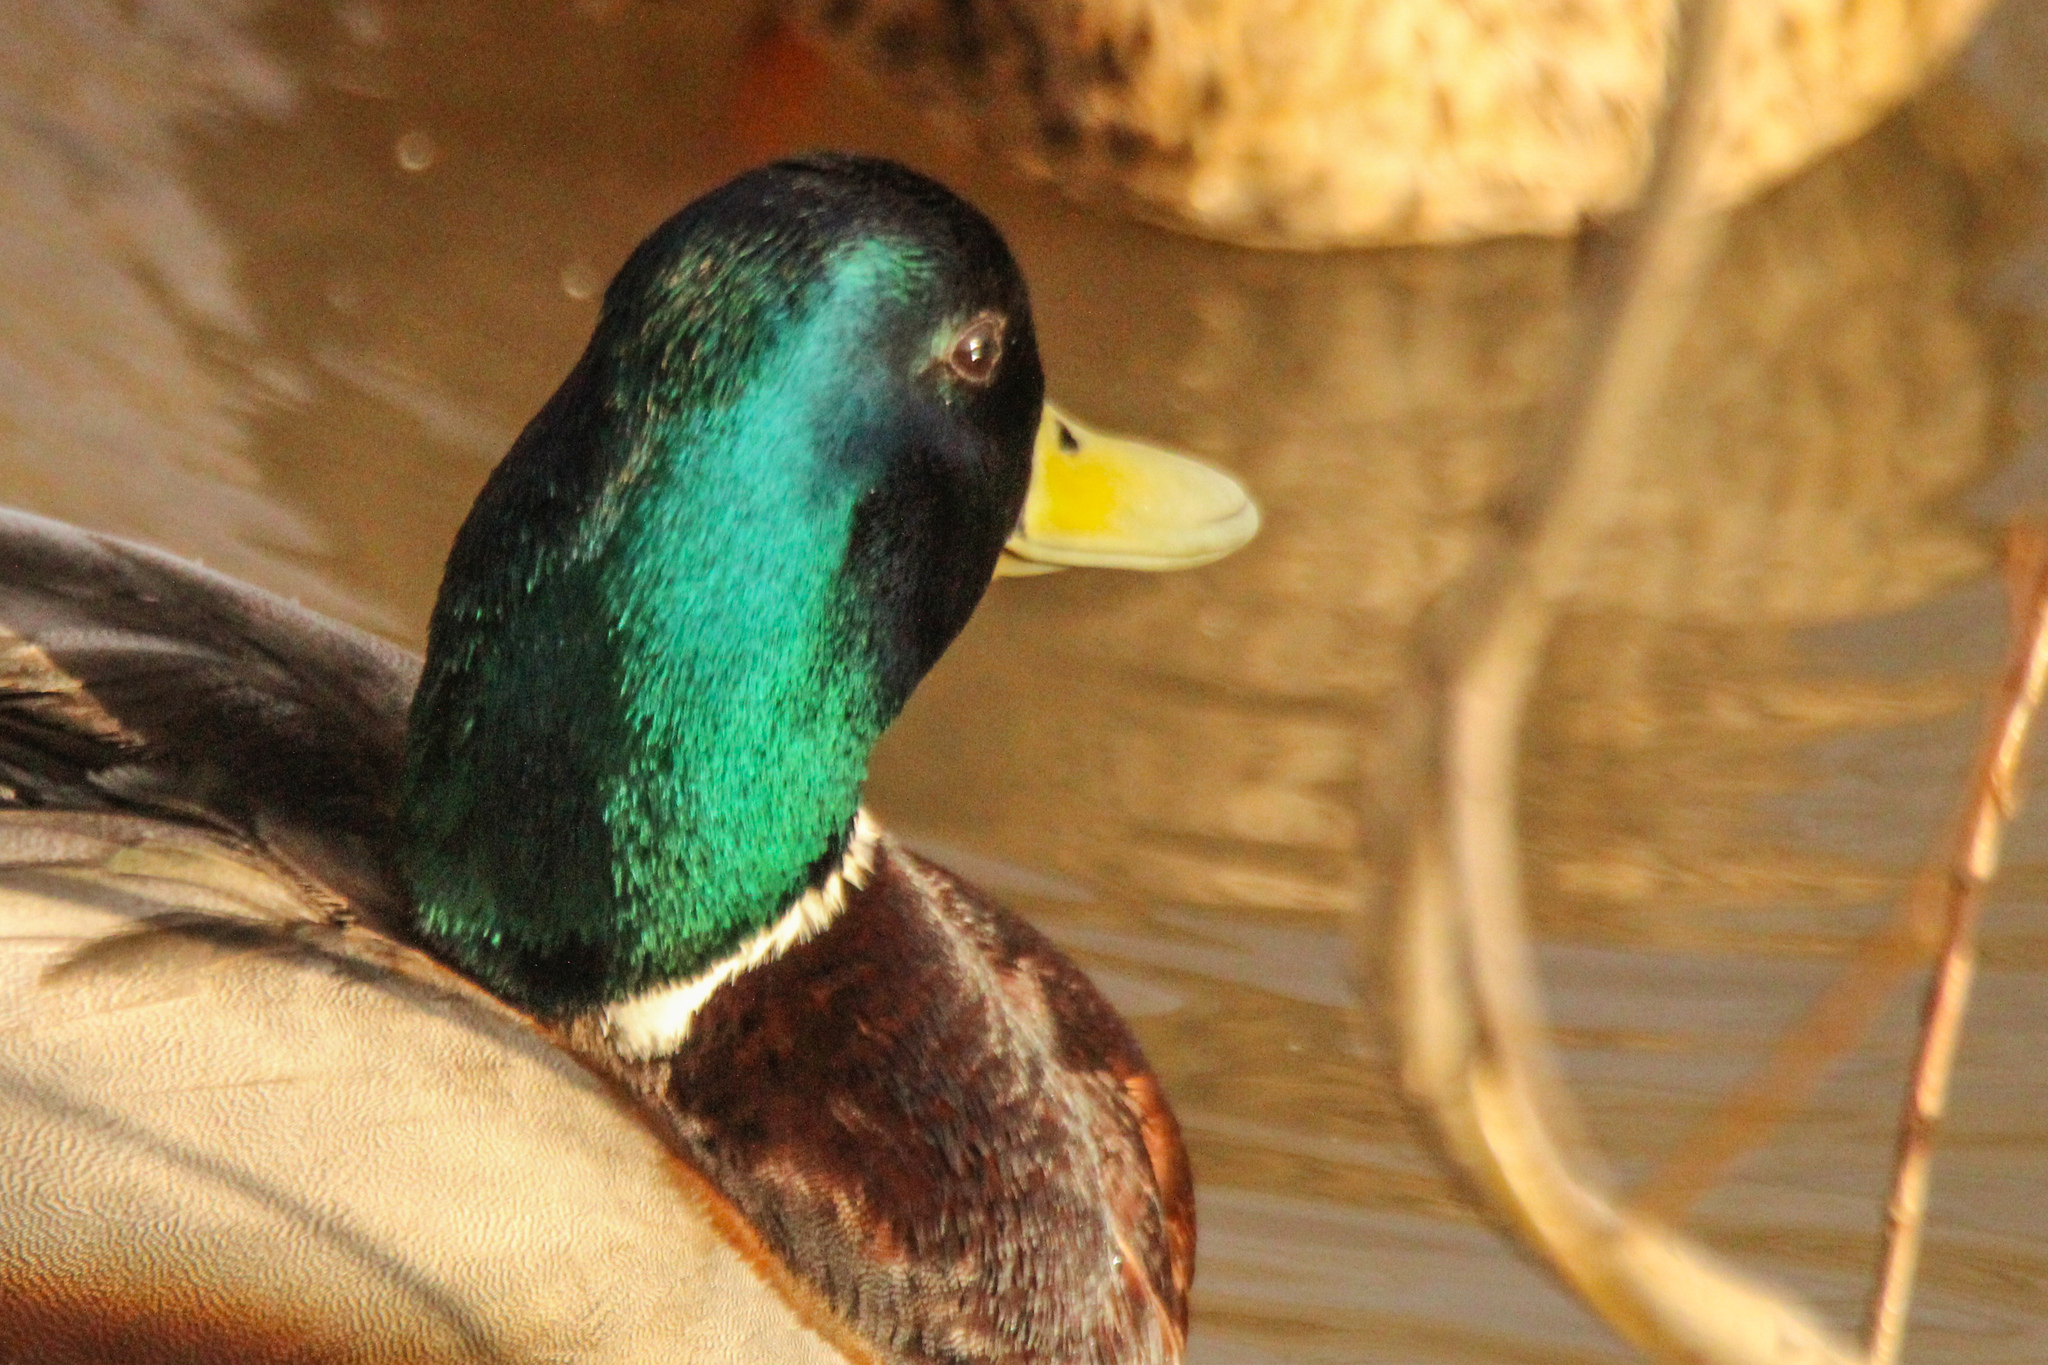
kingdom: Animalia
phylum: Chordata
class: Aves
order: Anseriformes
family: Anatidae
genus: Anas
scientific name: Anas platyrhynchos
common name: Mallard
